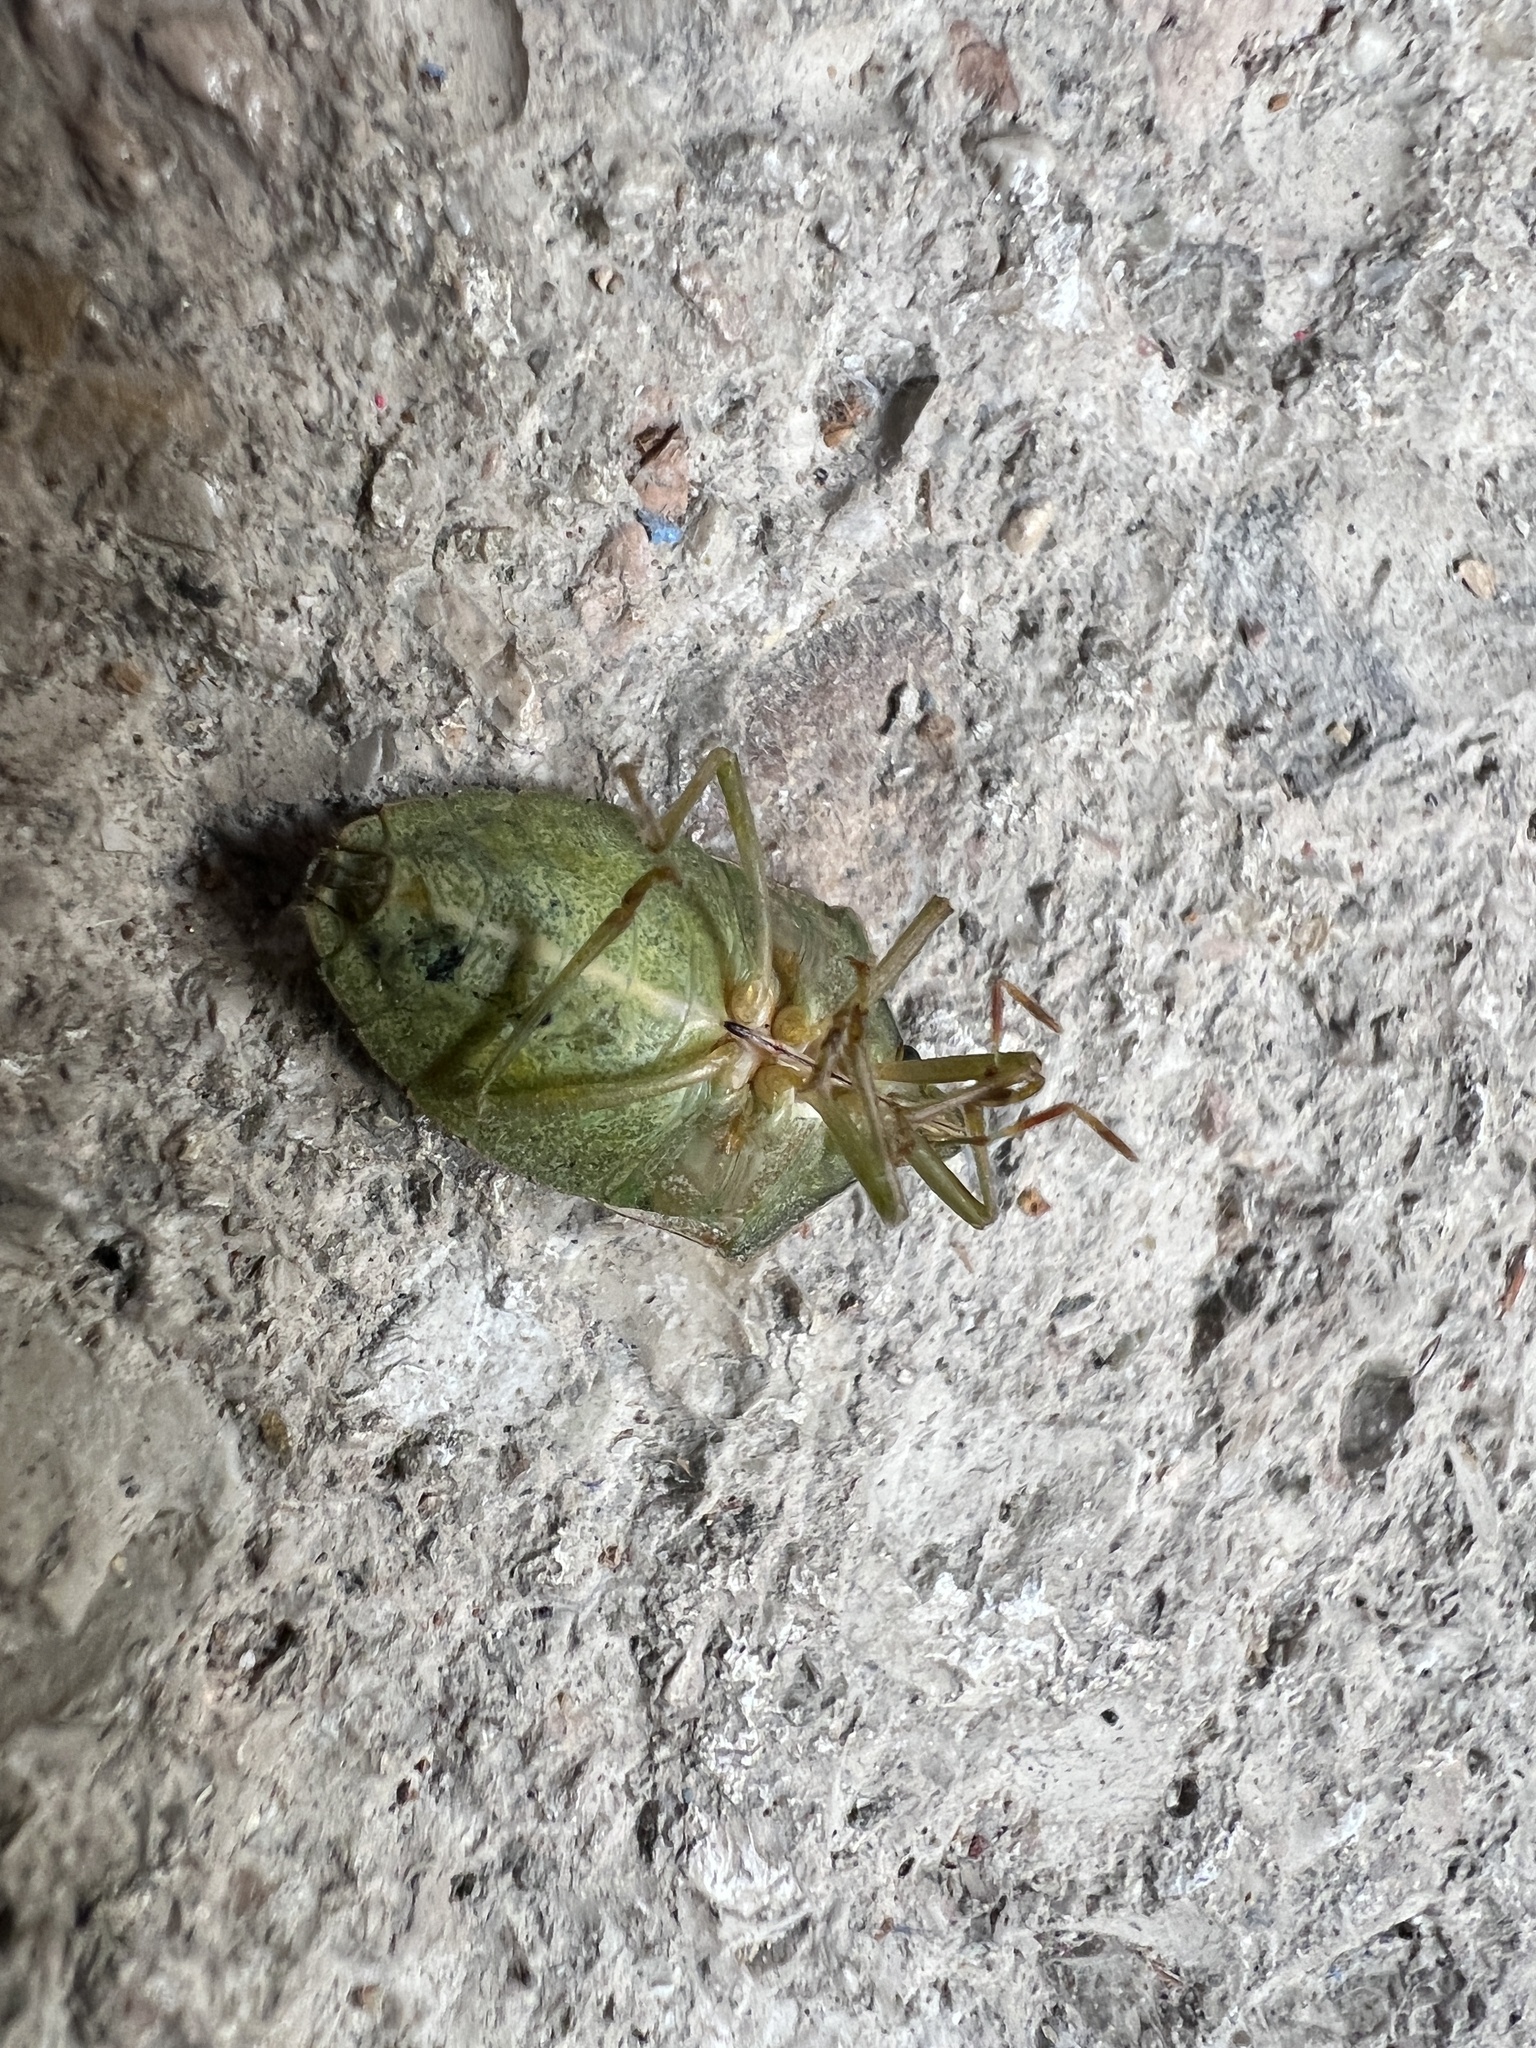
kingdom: Animalia
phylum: Arthropoda
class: Insecta
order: Hemiptera
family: Pentatomidae
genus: Nezara
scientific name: Nezara viridula
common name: Southern green stink bug
